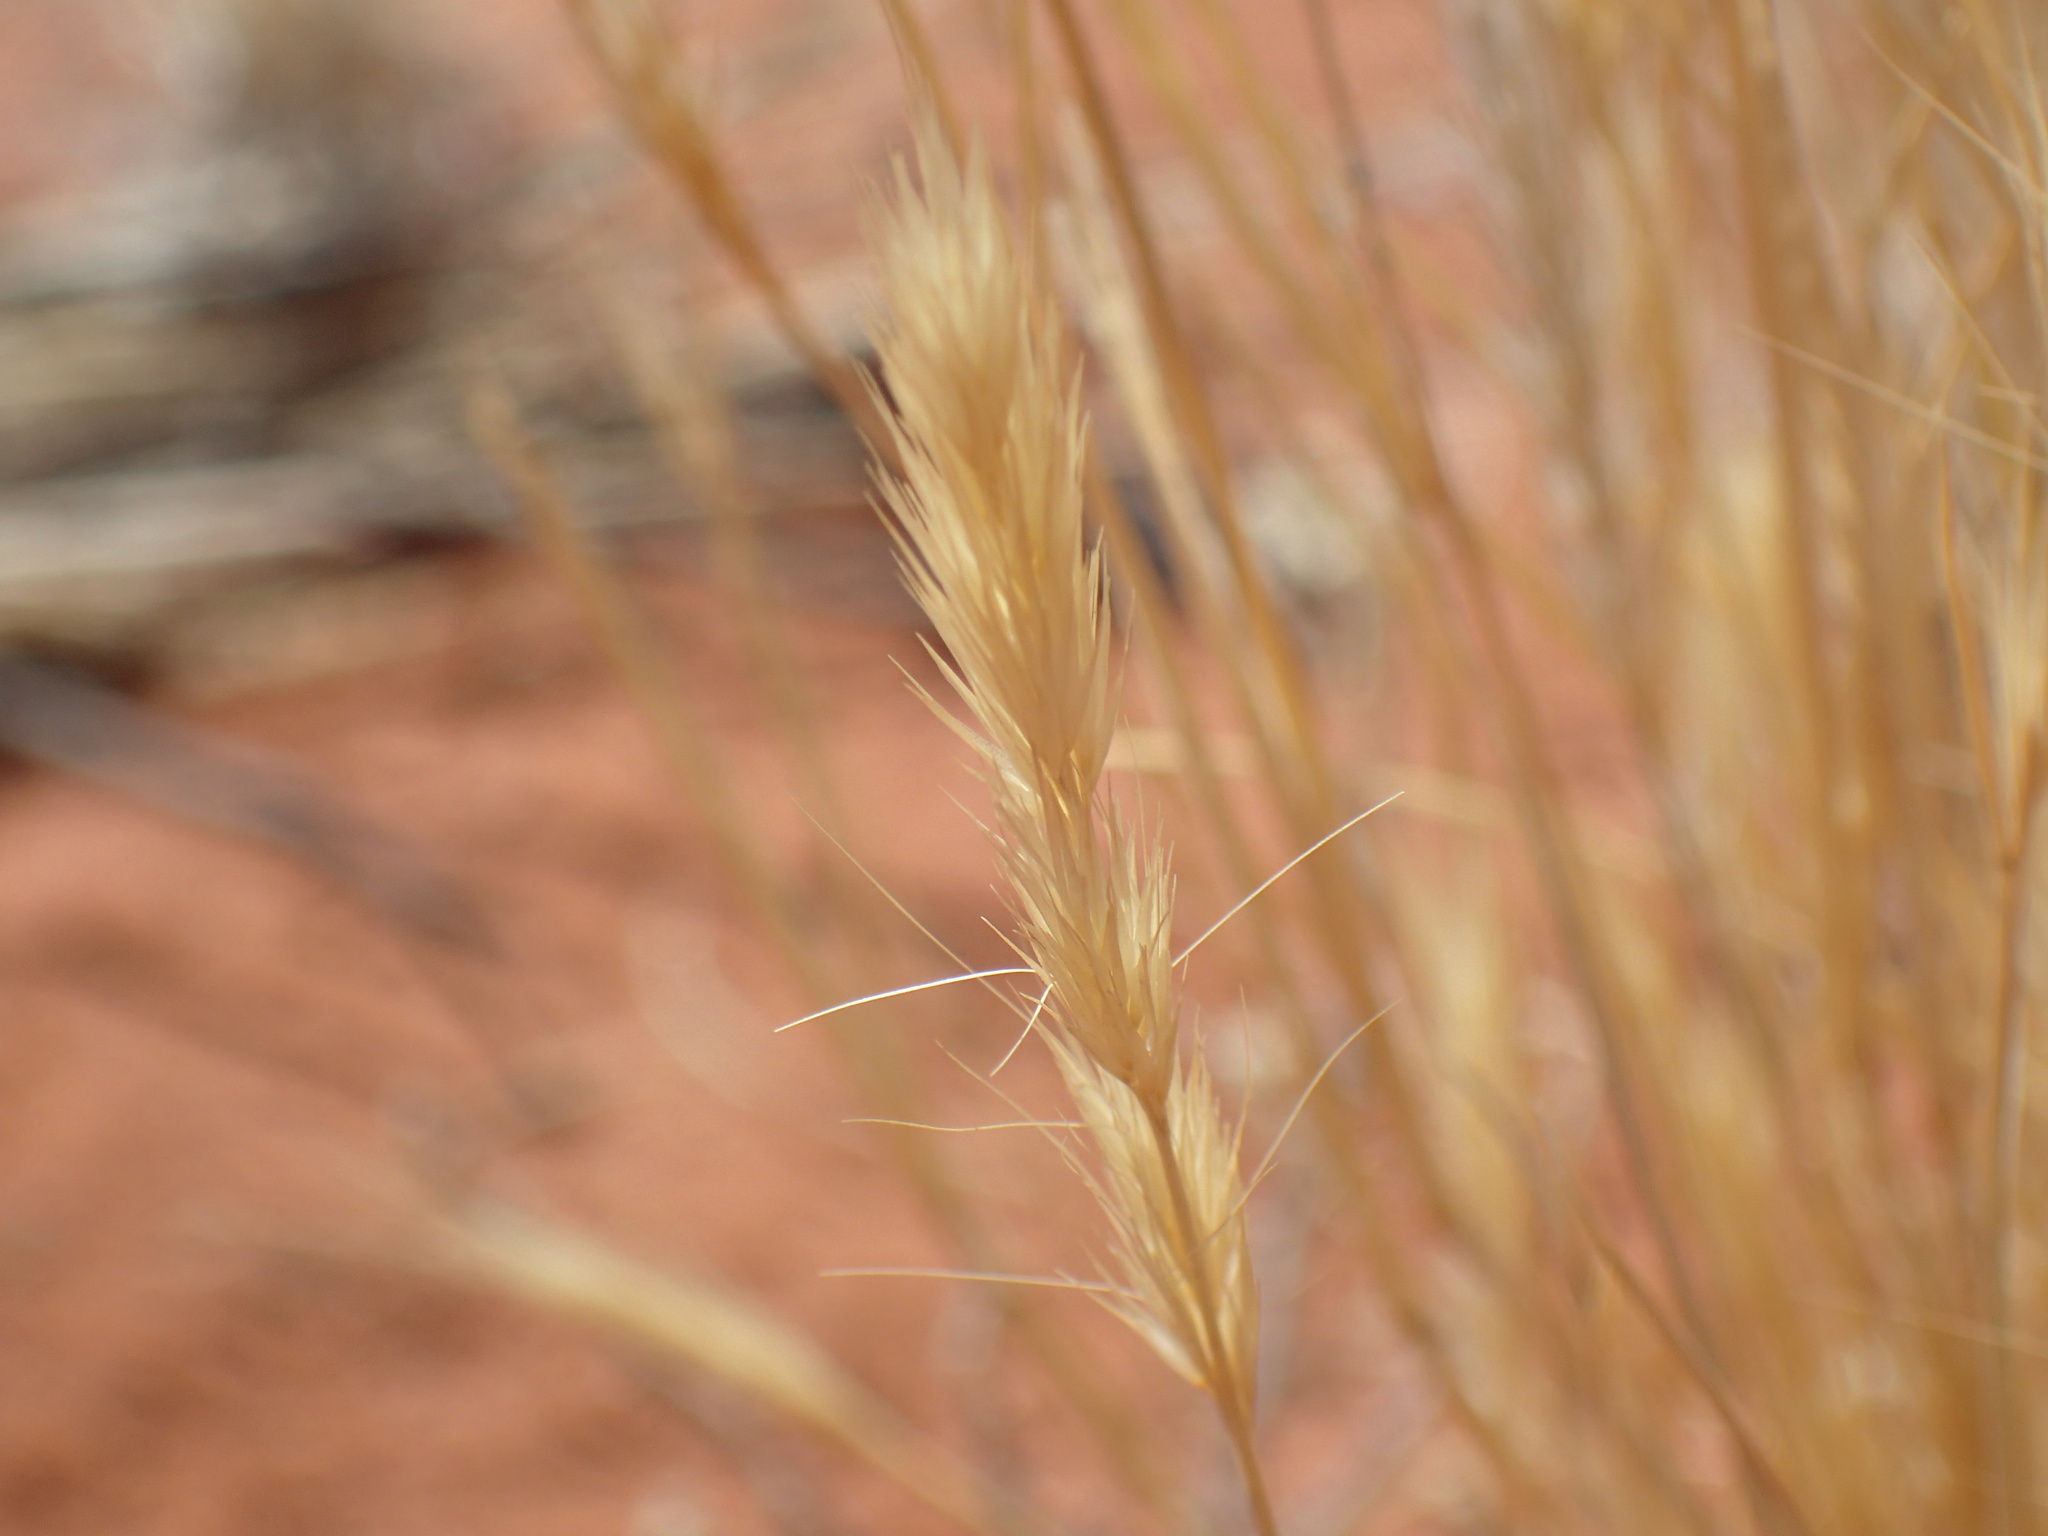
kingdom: Plantae
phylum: Tracheophyta
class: Liliopsida
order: Poales
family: Poaceae
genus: Schmidtia
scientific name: Schmidtia kalahariensis
